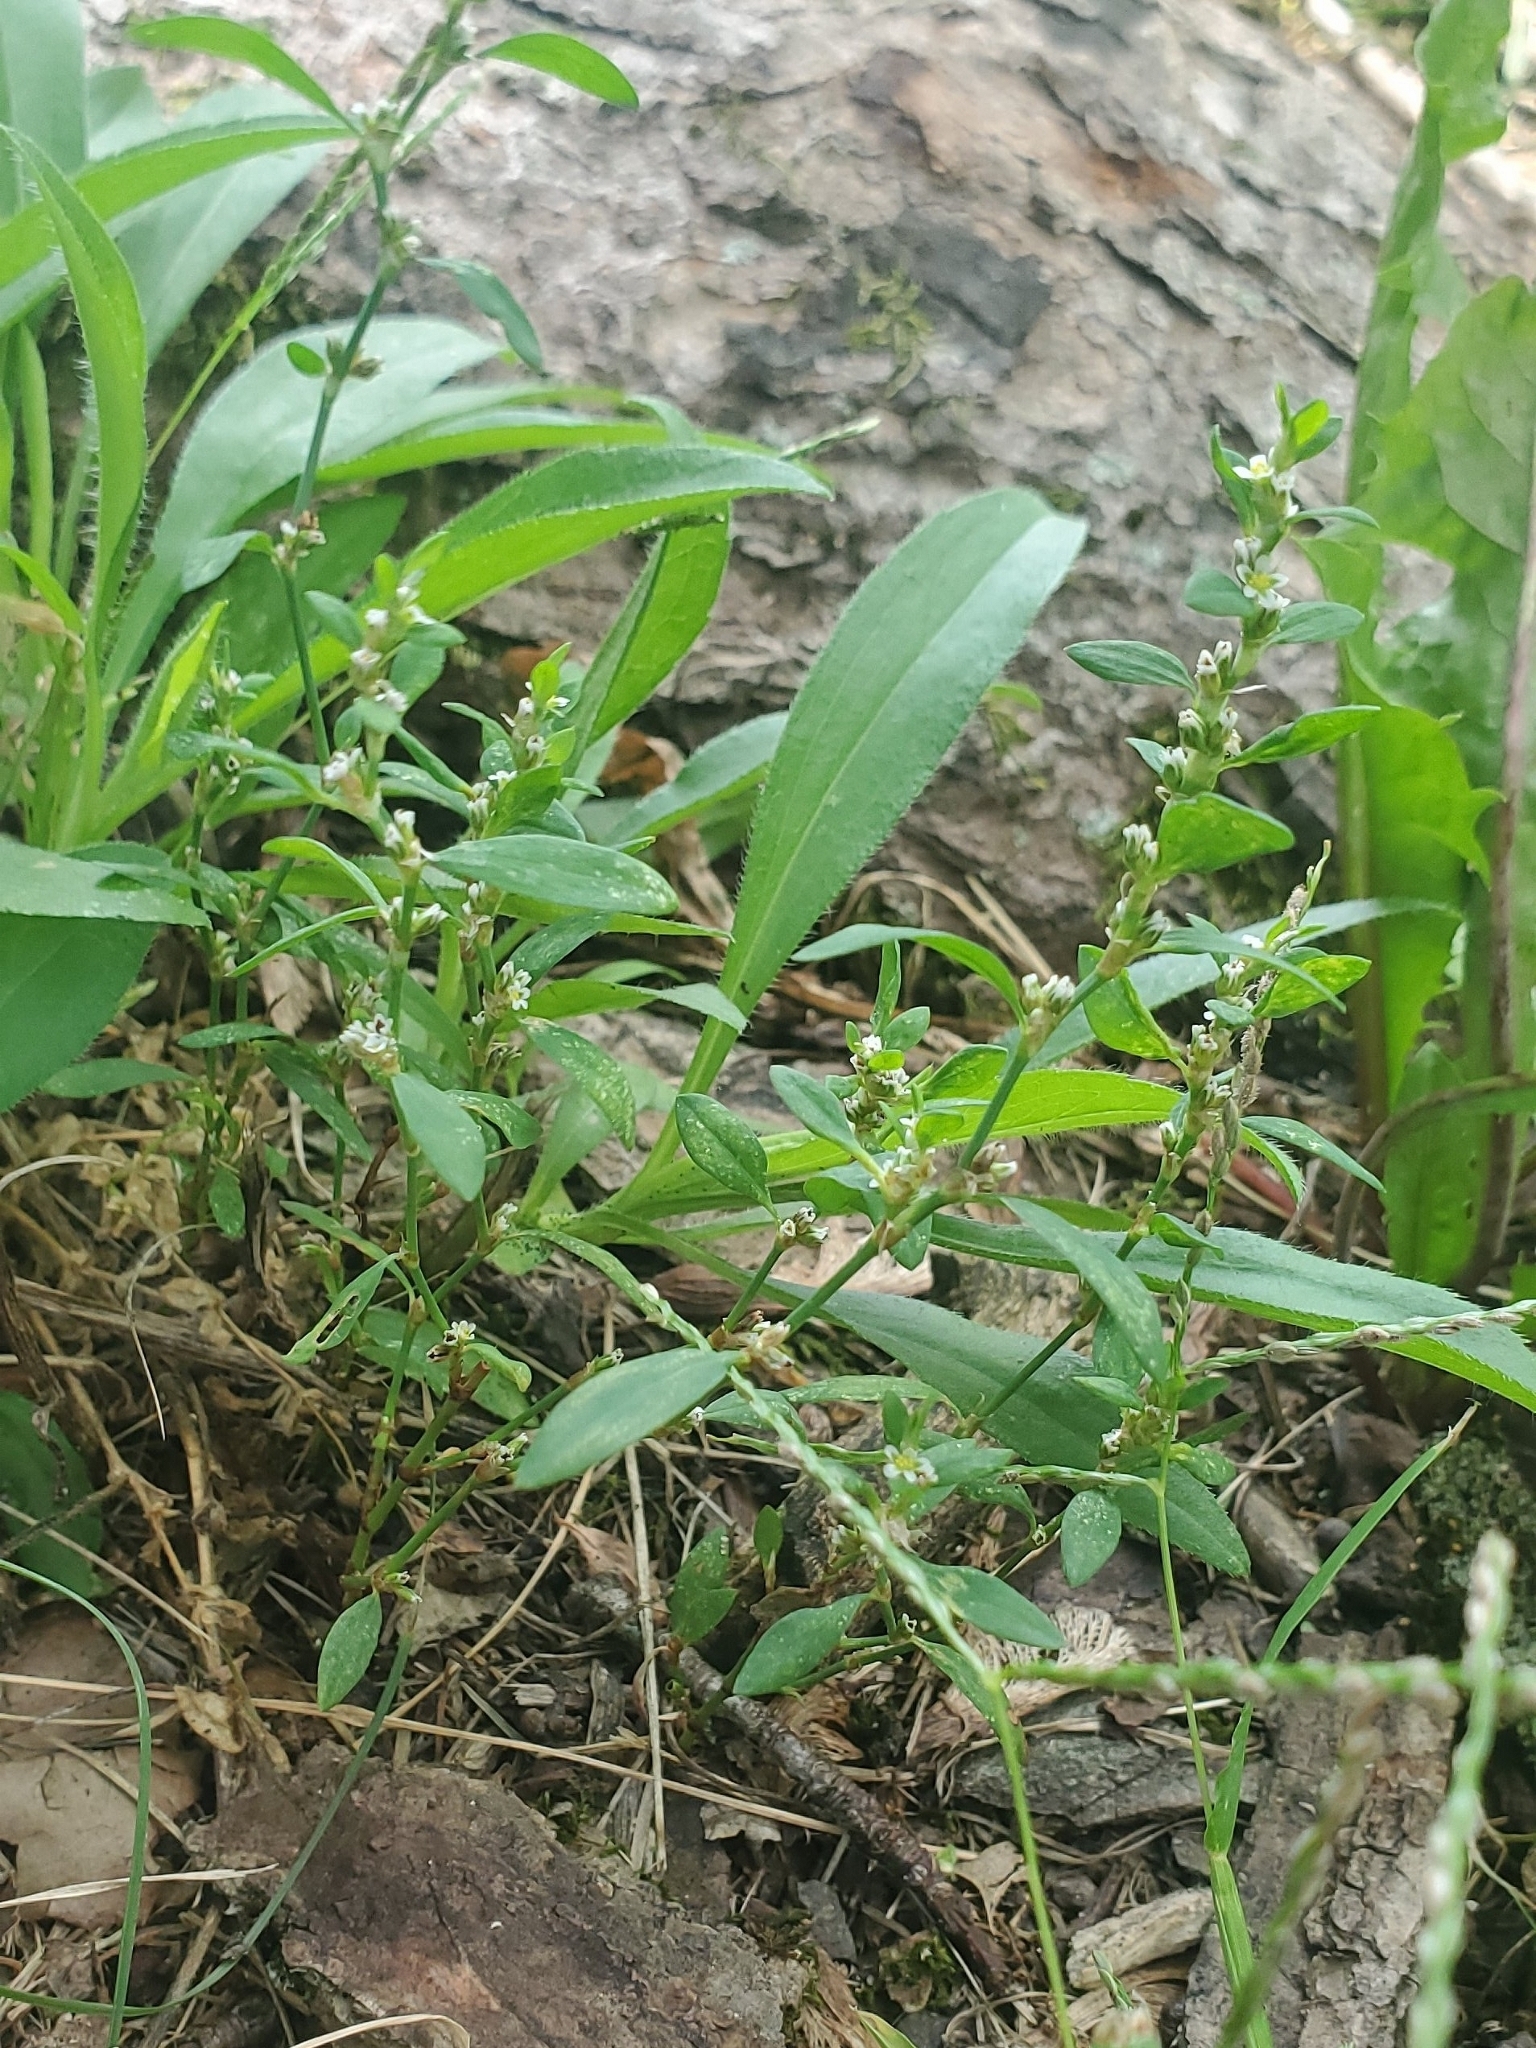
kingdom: Plantae
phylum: Tracheophyta
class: Magnoliopsida
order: Caryophyllales
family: Polygonaceae
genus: Polygonum
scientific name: Polygonum
